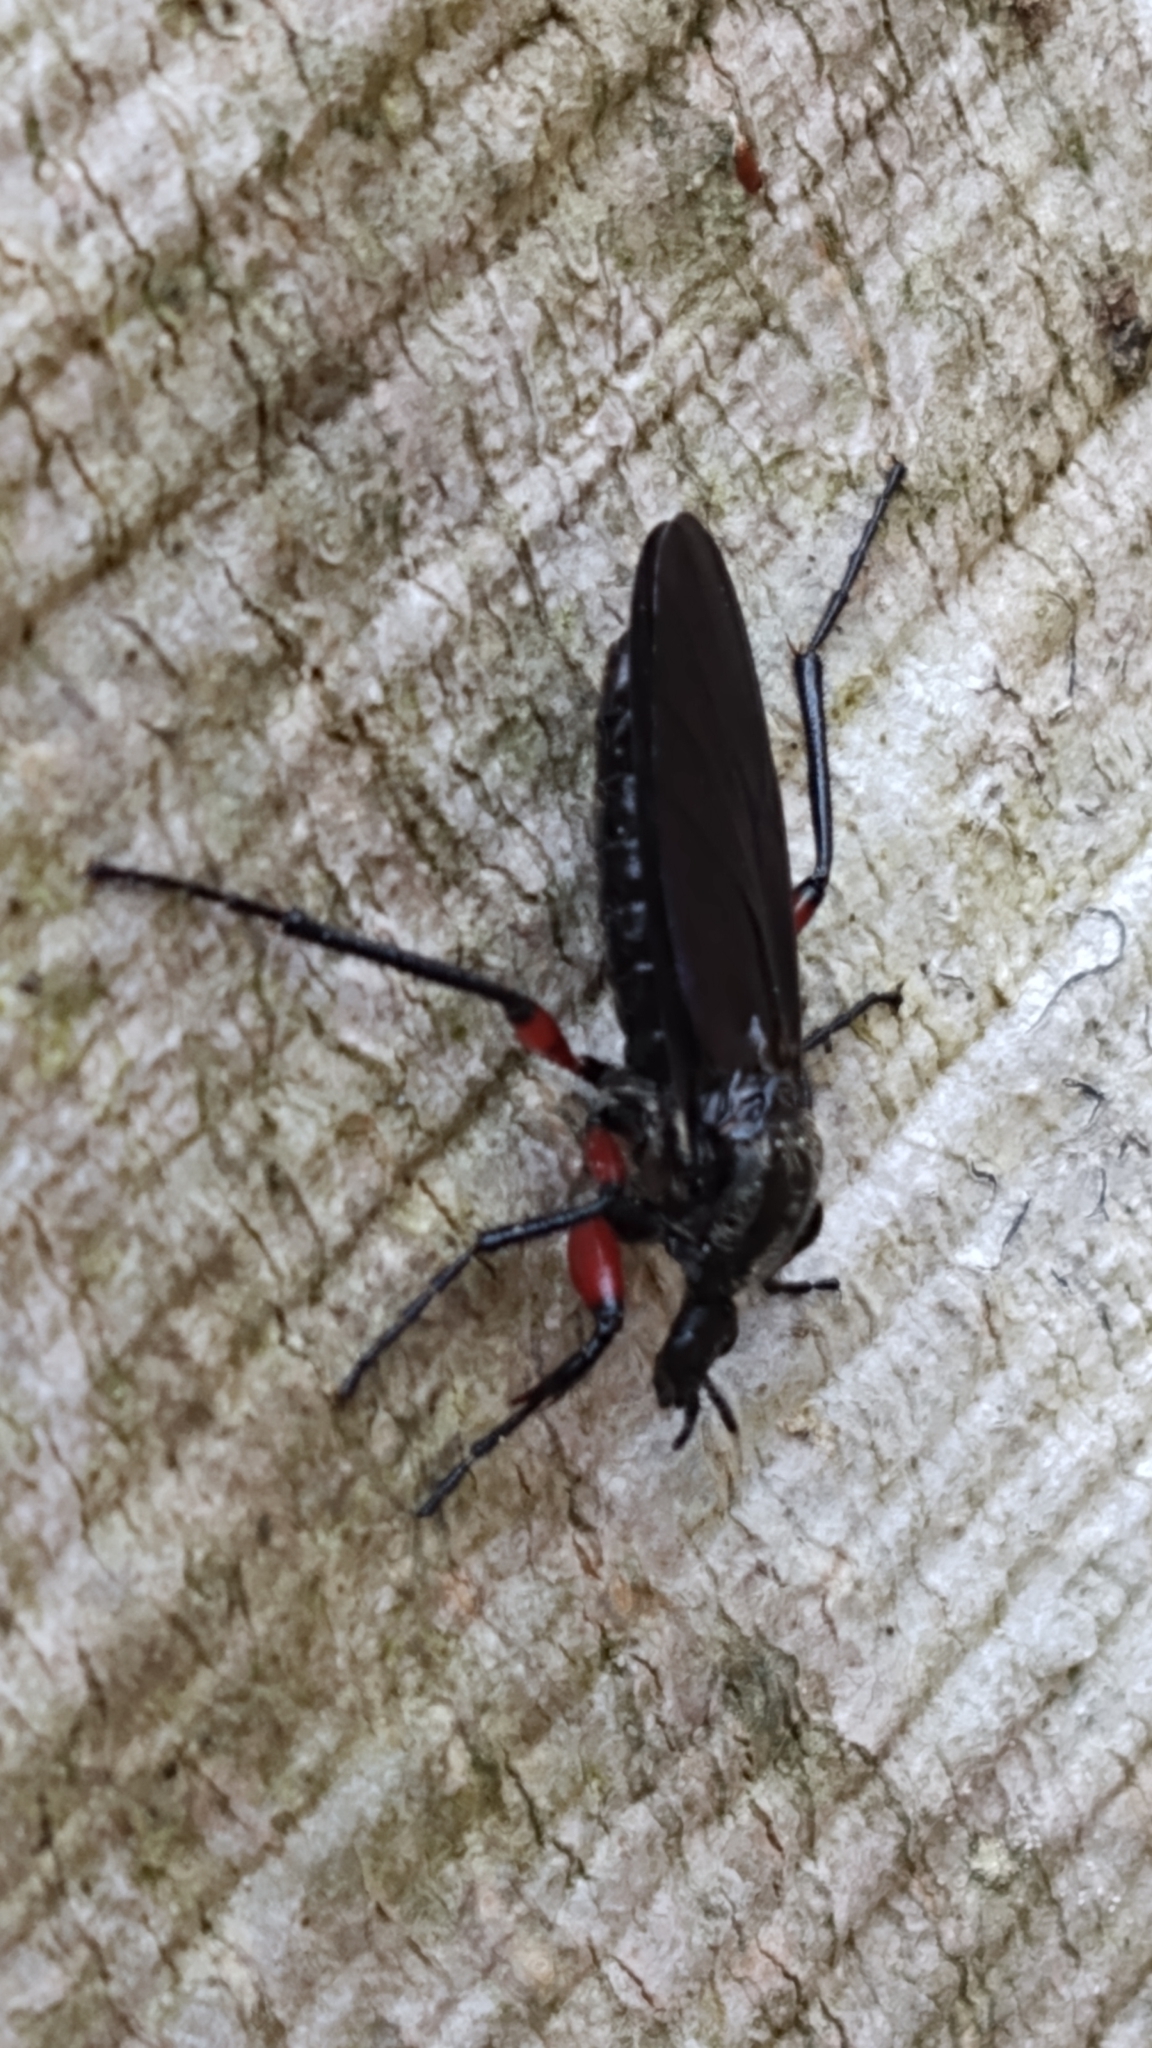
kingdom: Animalia
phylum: Arthropoda
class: Insecta
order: Diptera
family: Bibionidae
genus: Bibio
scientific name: Bibio femoratus
